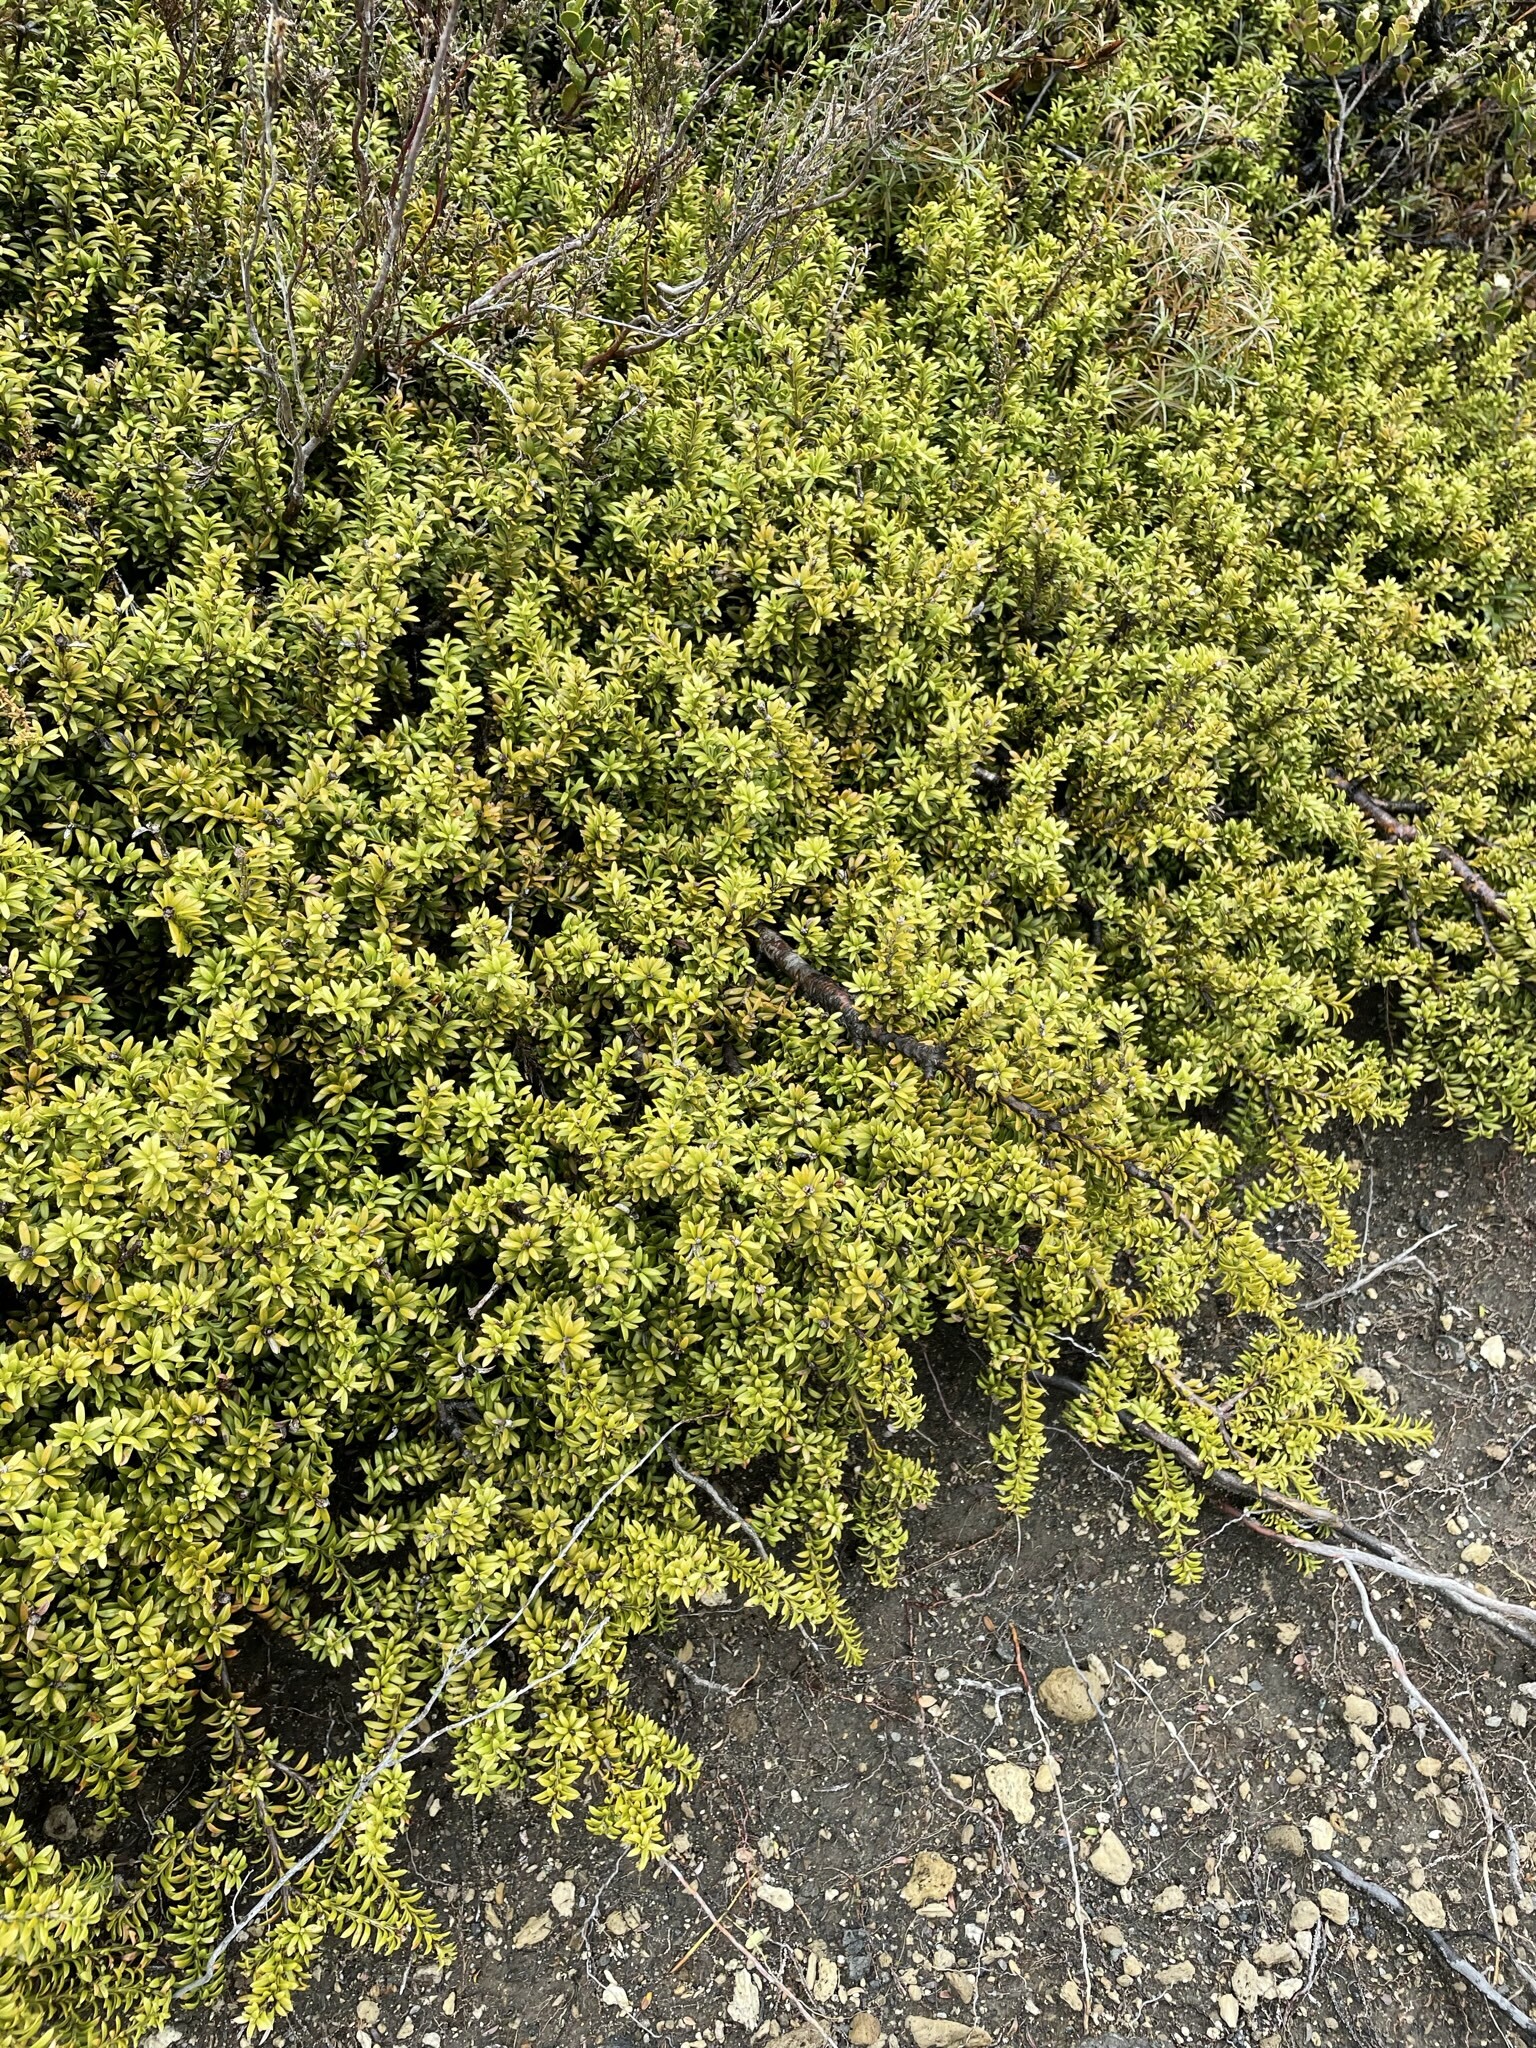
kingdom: Plantae
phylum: Tracheophyta
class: Pinopsida
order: Pinales
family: Podocarpaceae
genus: Podocarpus
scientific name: Podocarpus nivalis
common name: Alpine totara
